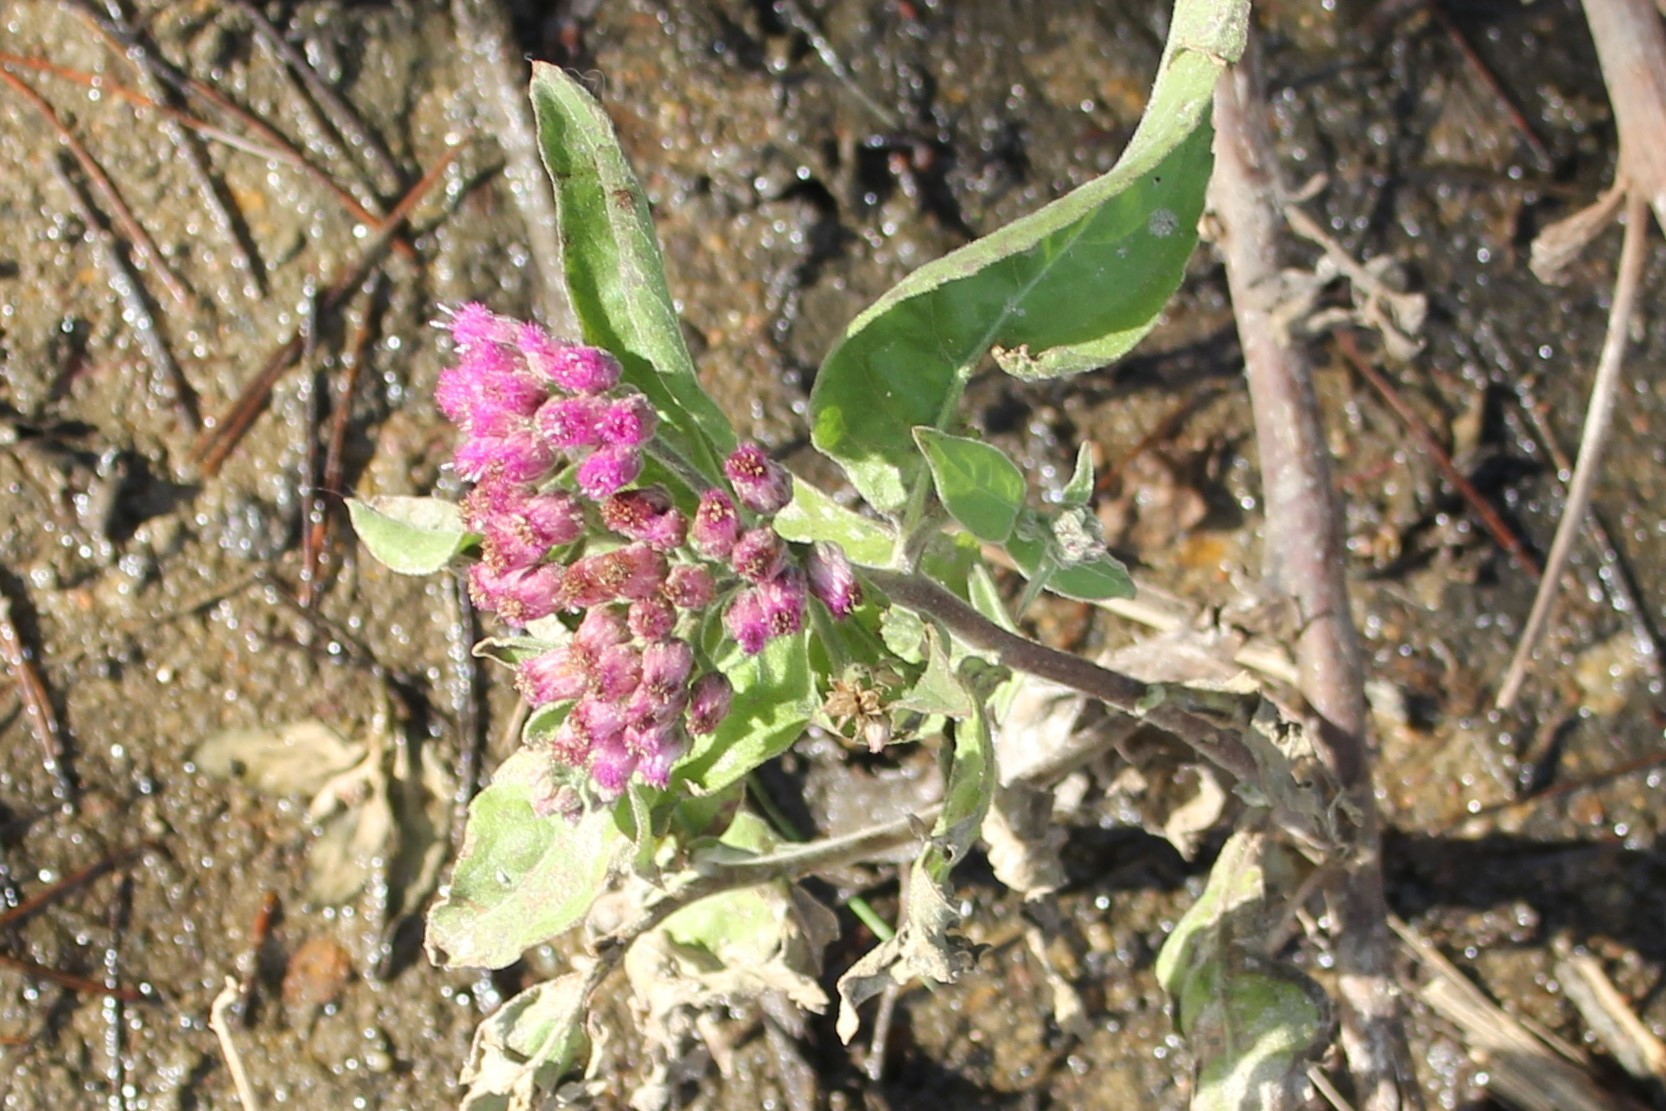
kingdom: Plantae
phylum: Tracheophyta
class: Magnoliopsida
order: Asterales
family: Asteraceae
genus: Pluchea
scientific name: Pluchea odorata
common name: Saltmarsh fleabane
